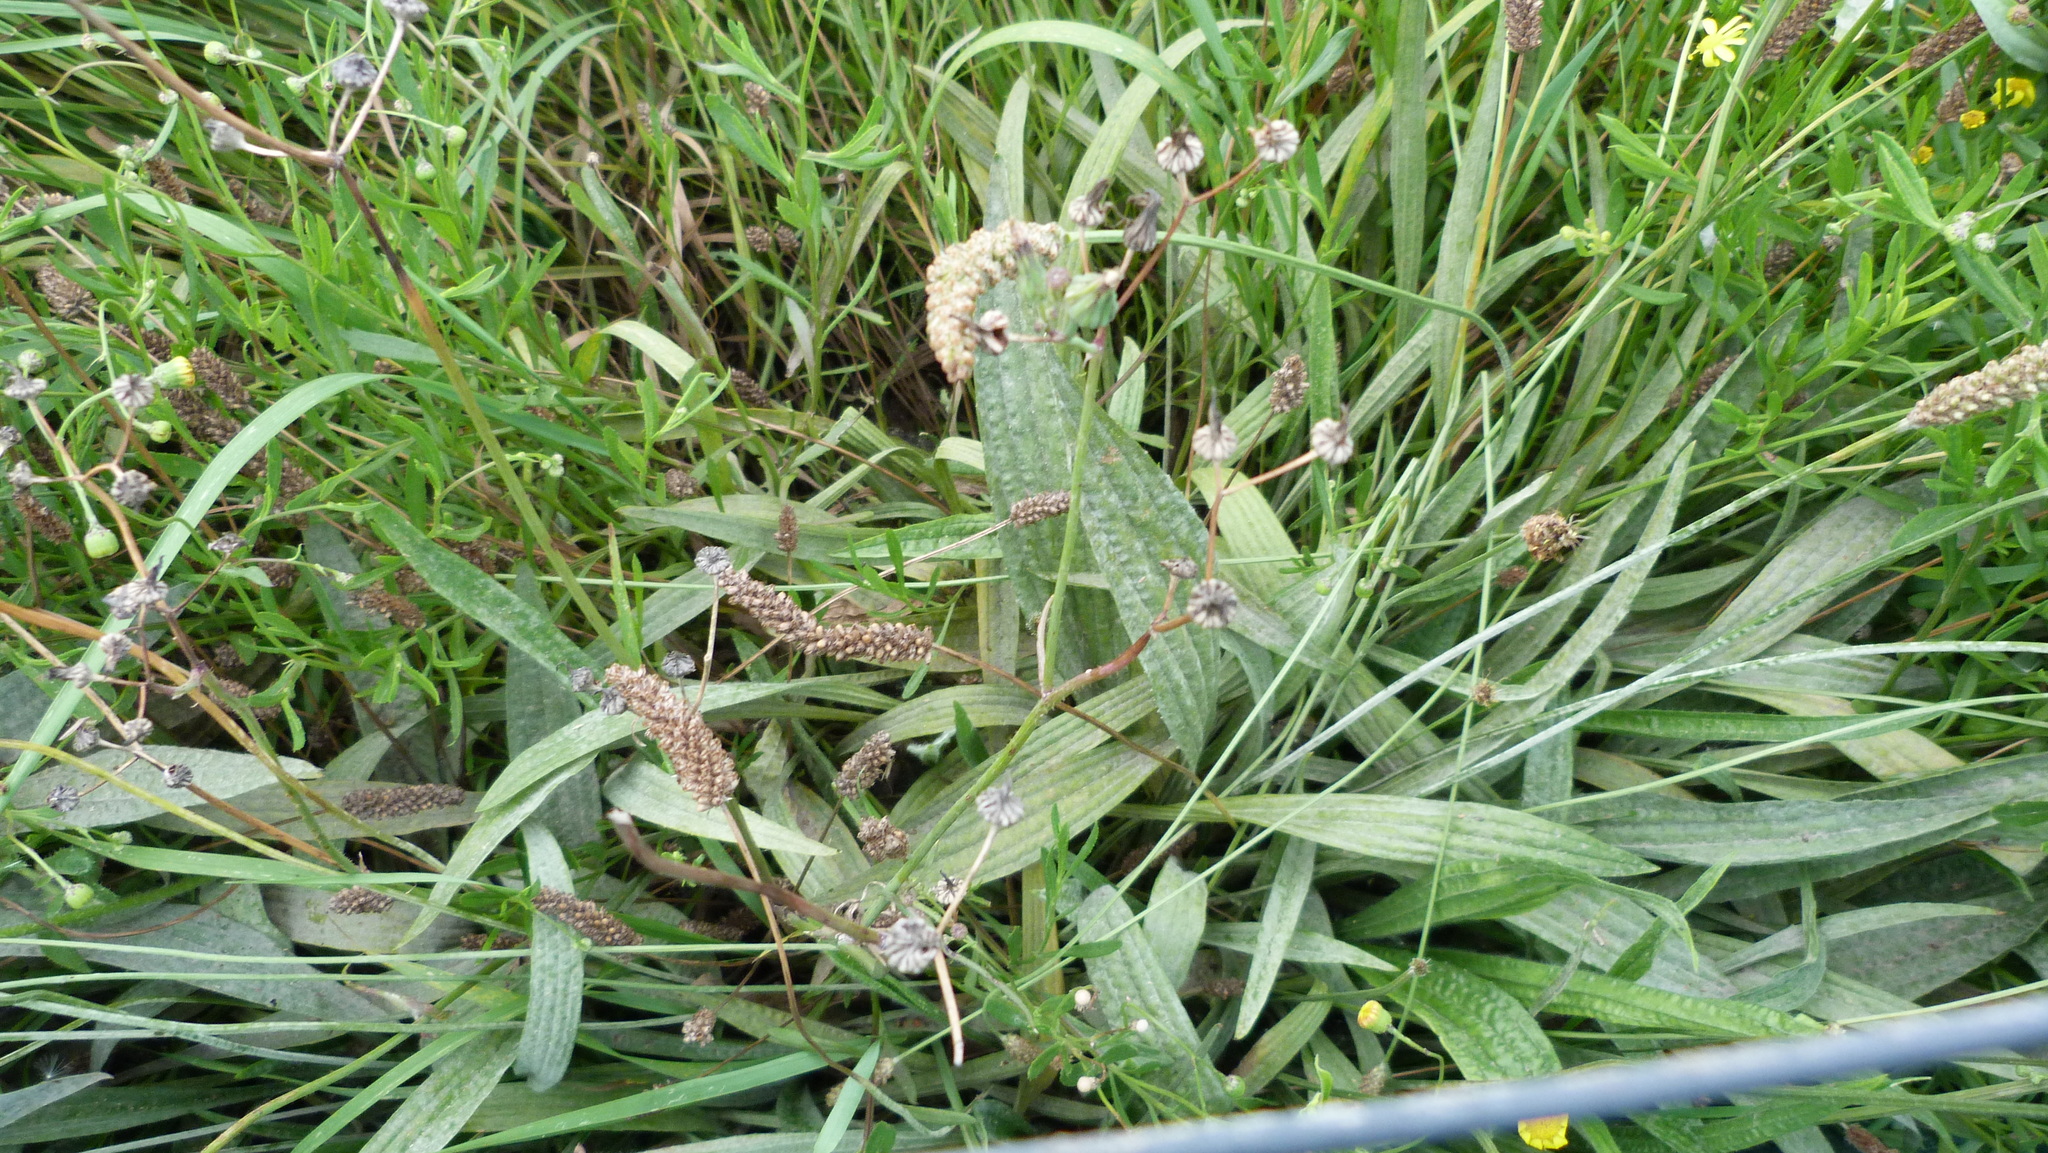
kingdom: Plantae
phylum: Tracheophyta
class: Magnoliopsida
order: Lamiales
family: Plantaginaceae
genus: Plantago
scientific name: Plantago lanceolata
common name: Ribwort plantain
